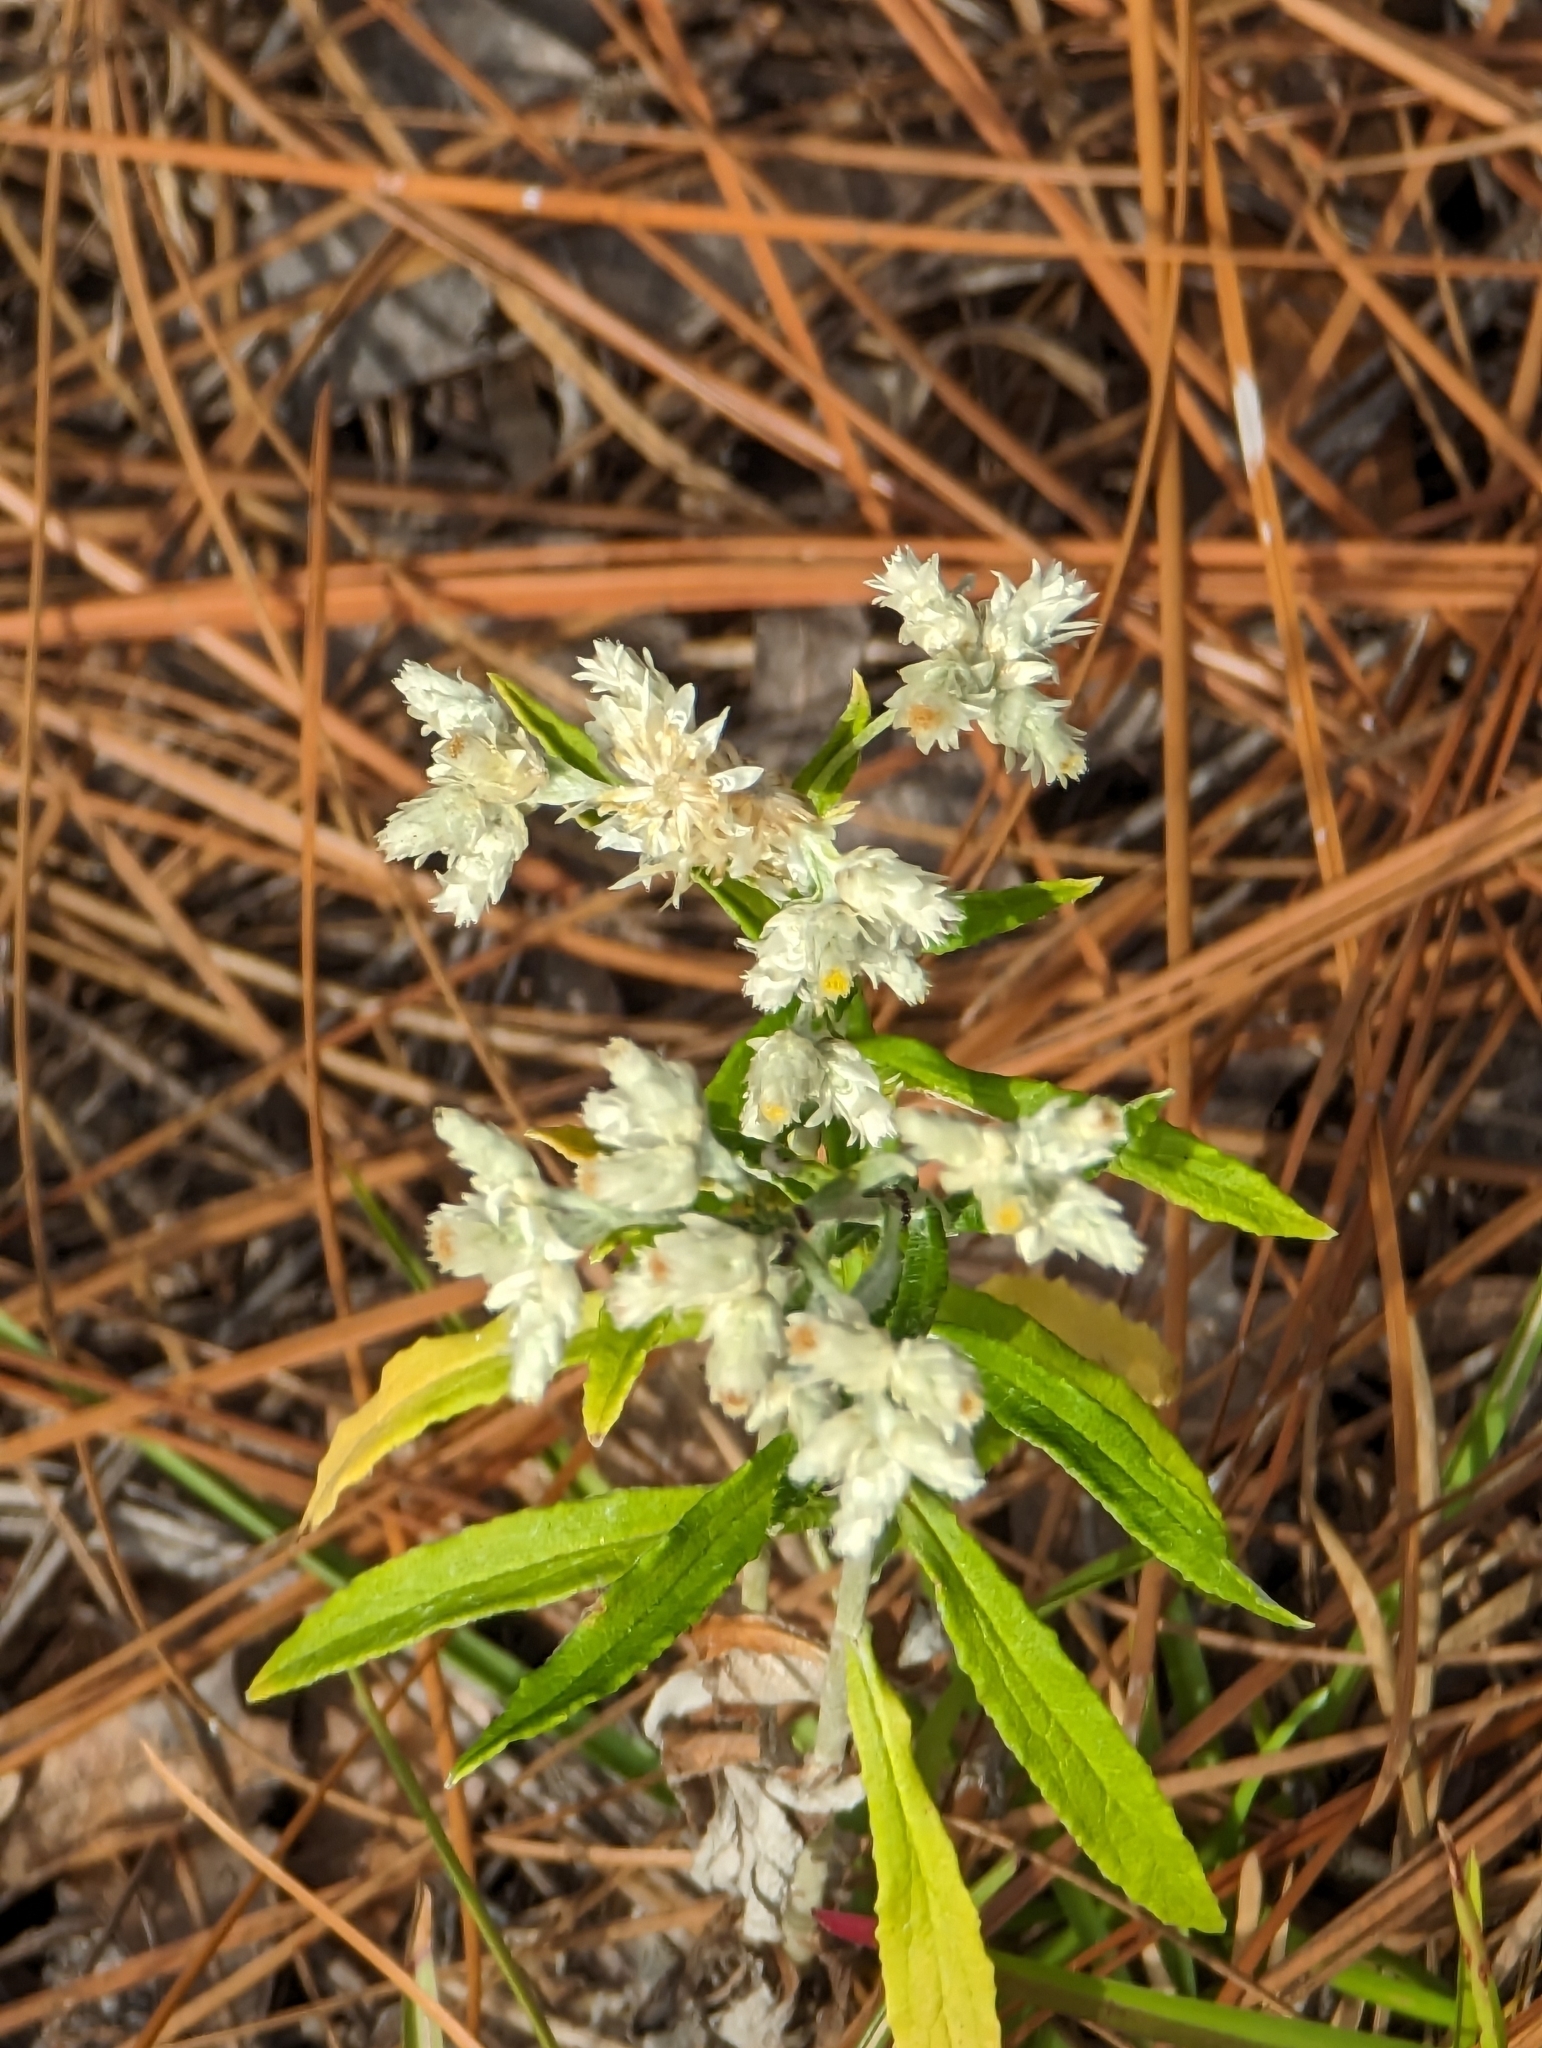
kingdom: Plantae
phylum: Tracheophyta
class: Magnoliopsida
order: Asterales
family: Asteraceae
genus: Pseudognaphalium
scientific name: Pseudognaphalium obtusifolium
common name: Eastern rabbit-tobacco
